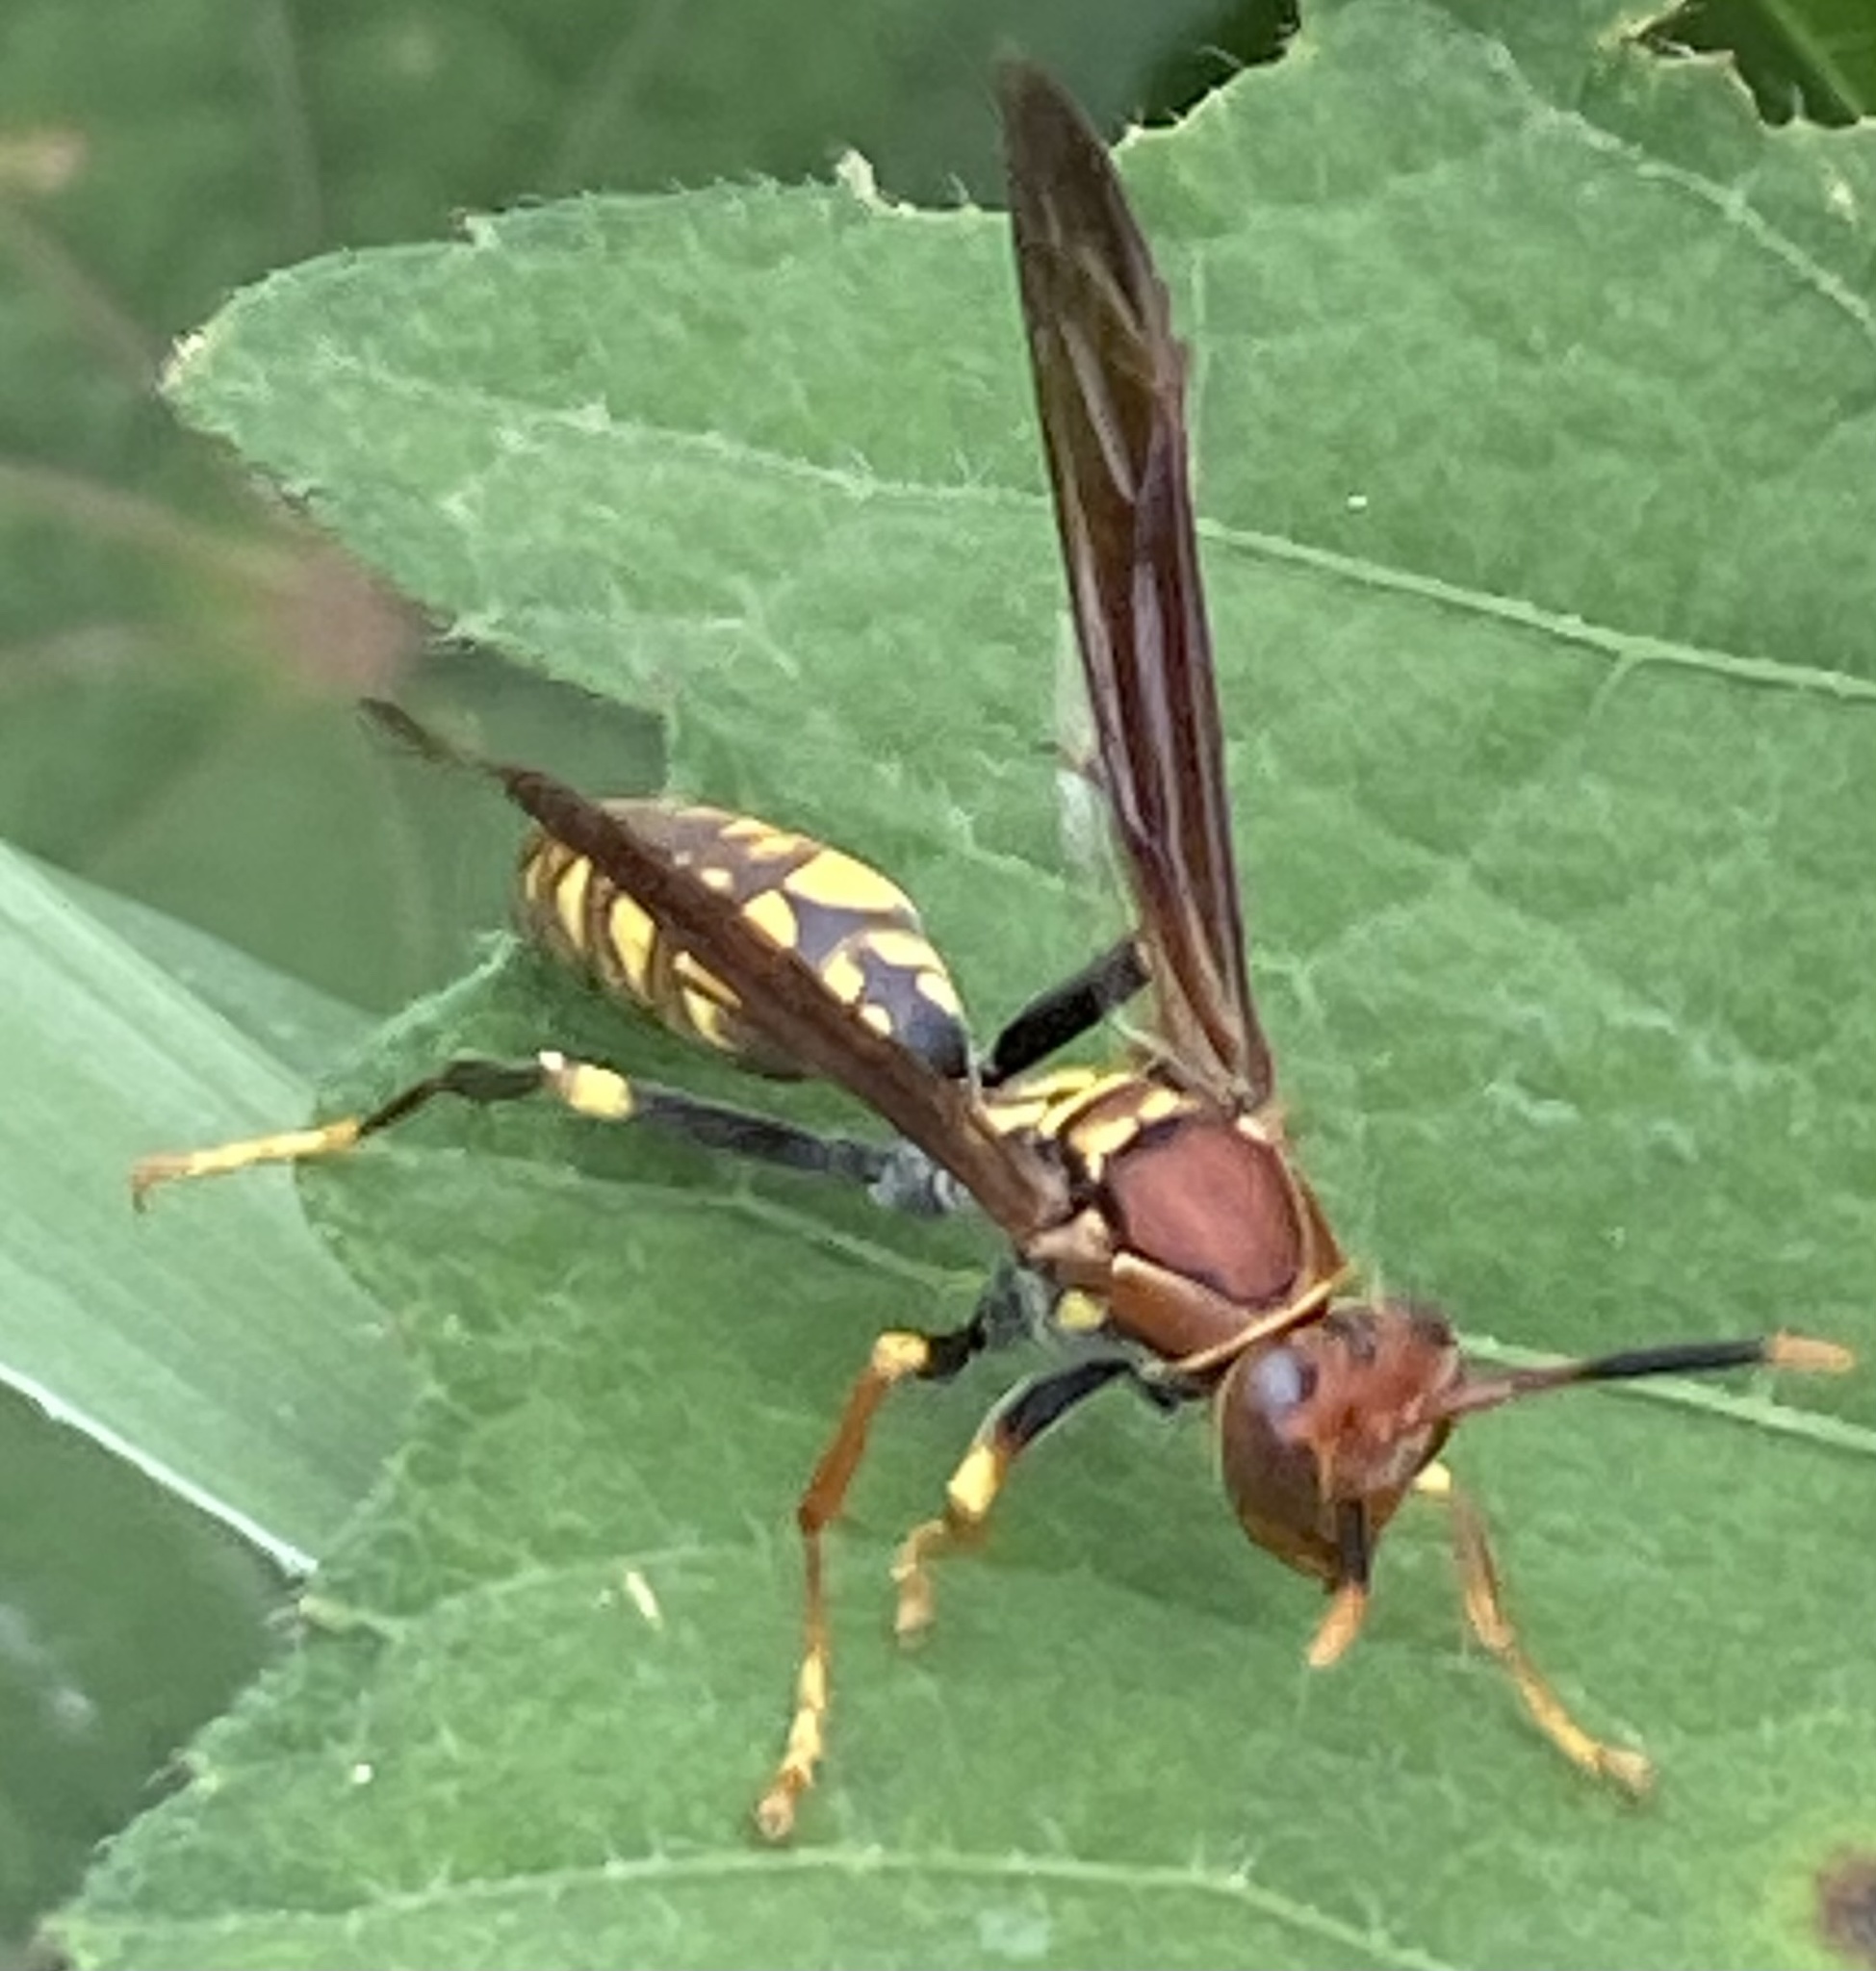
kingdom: Animalia
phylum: Arthropoda
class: Insecta
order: Hymenoptera
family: Eumenidae
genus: Polistes
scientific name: Polistes versicolor
